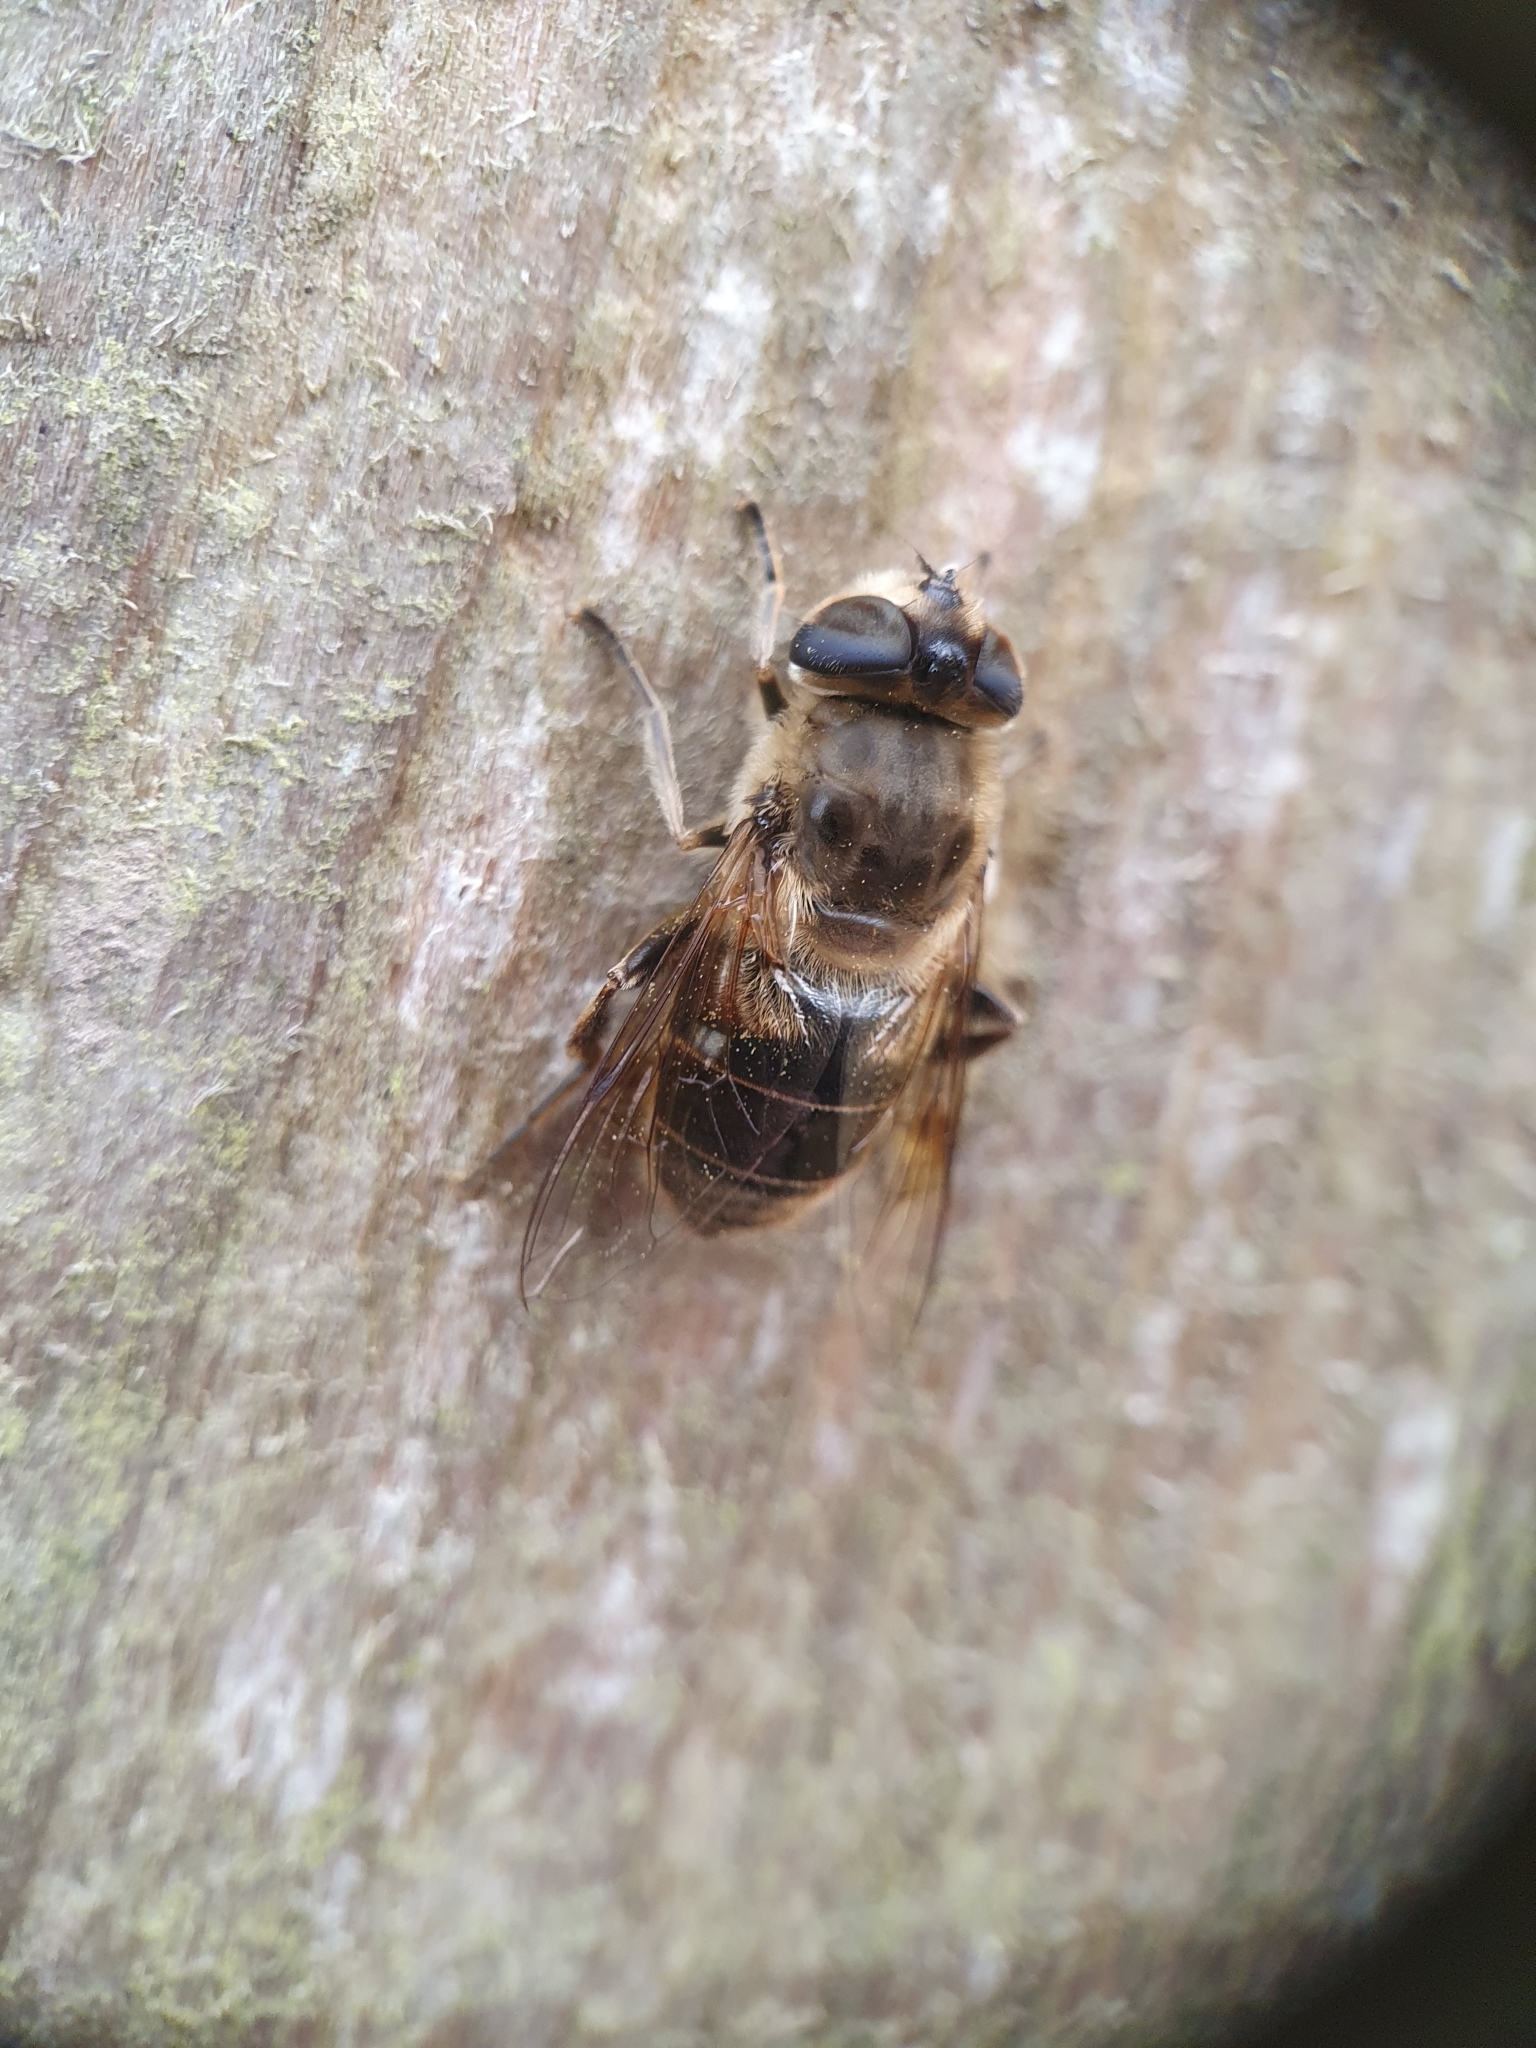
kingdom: Animalia
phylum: Arthropoda
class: Insecta
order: Diptera
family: Syrphidae
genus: Eristalis
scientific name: Eristalis tenax
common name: Drone fly
